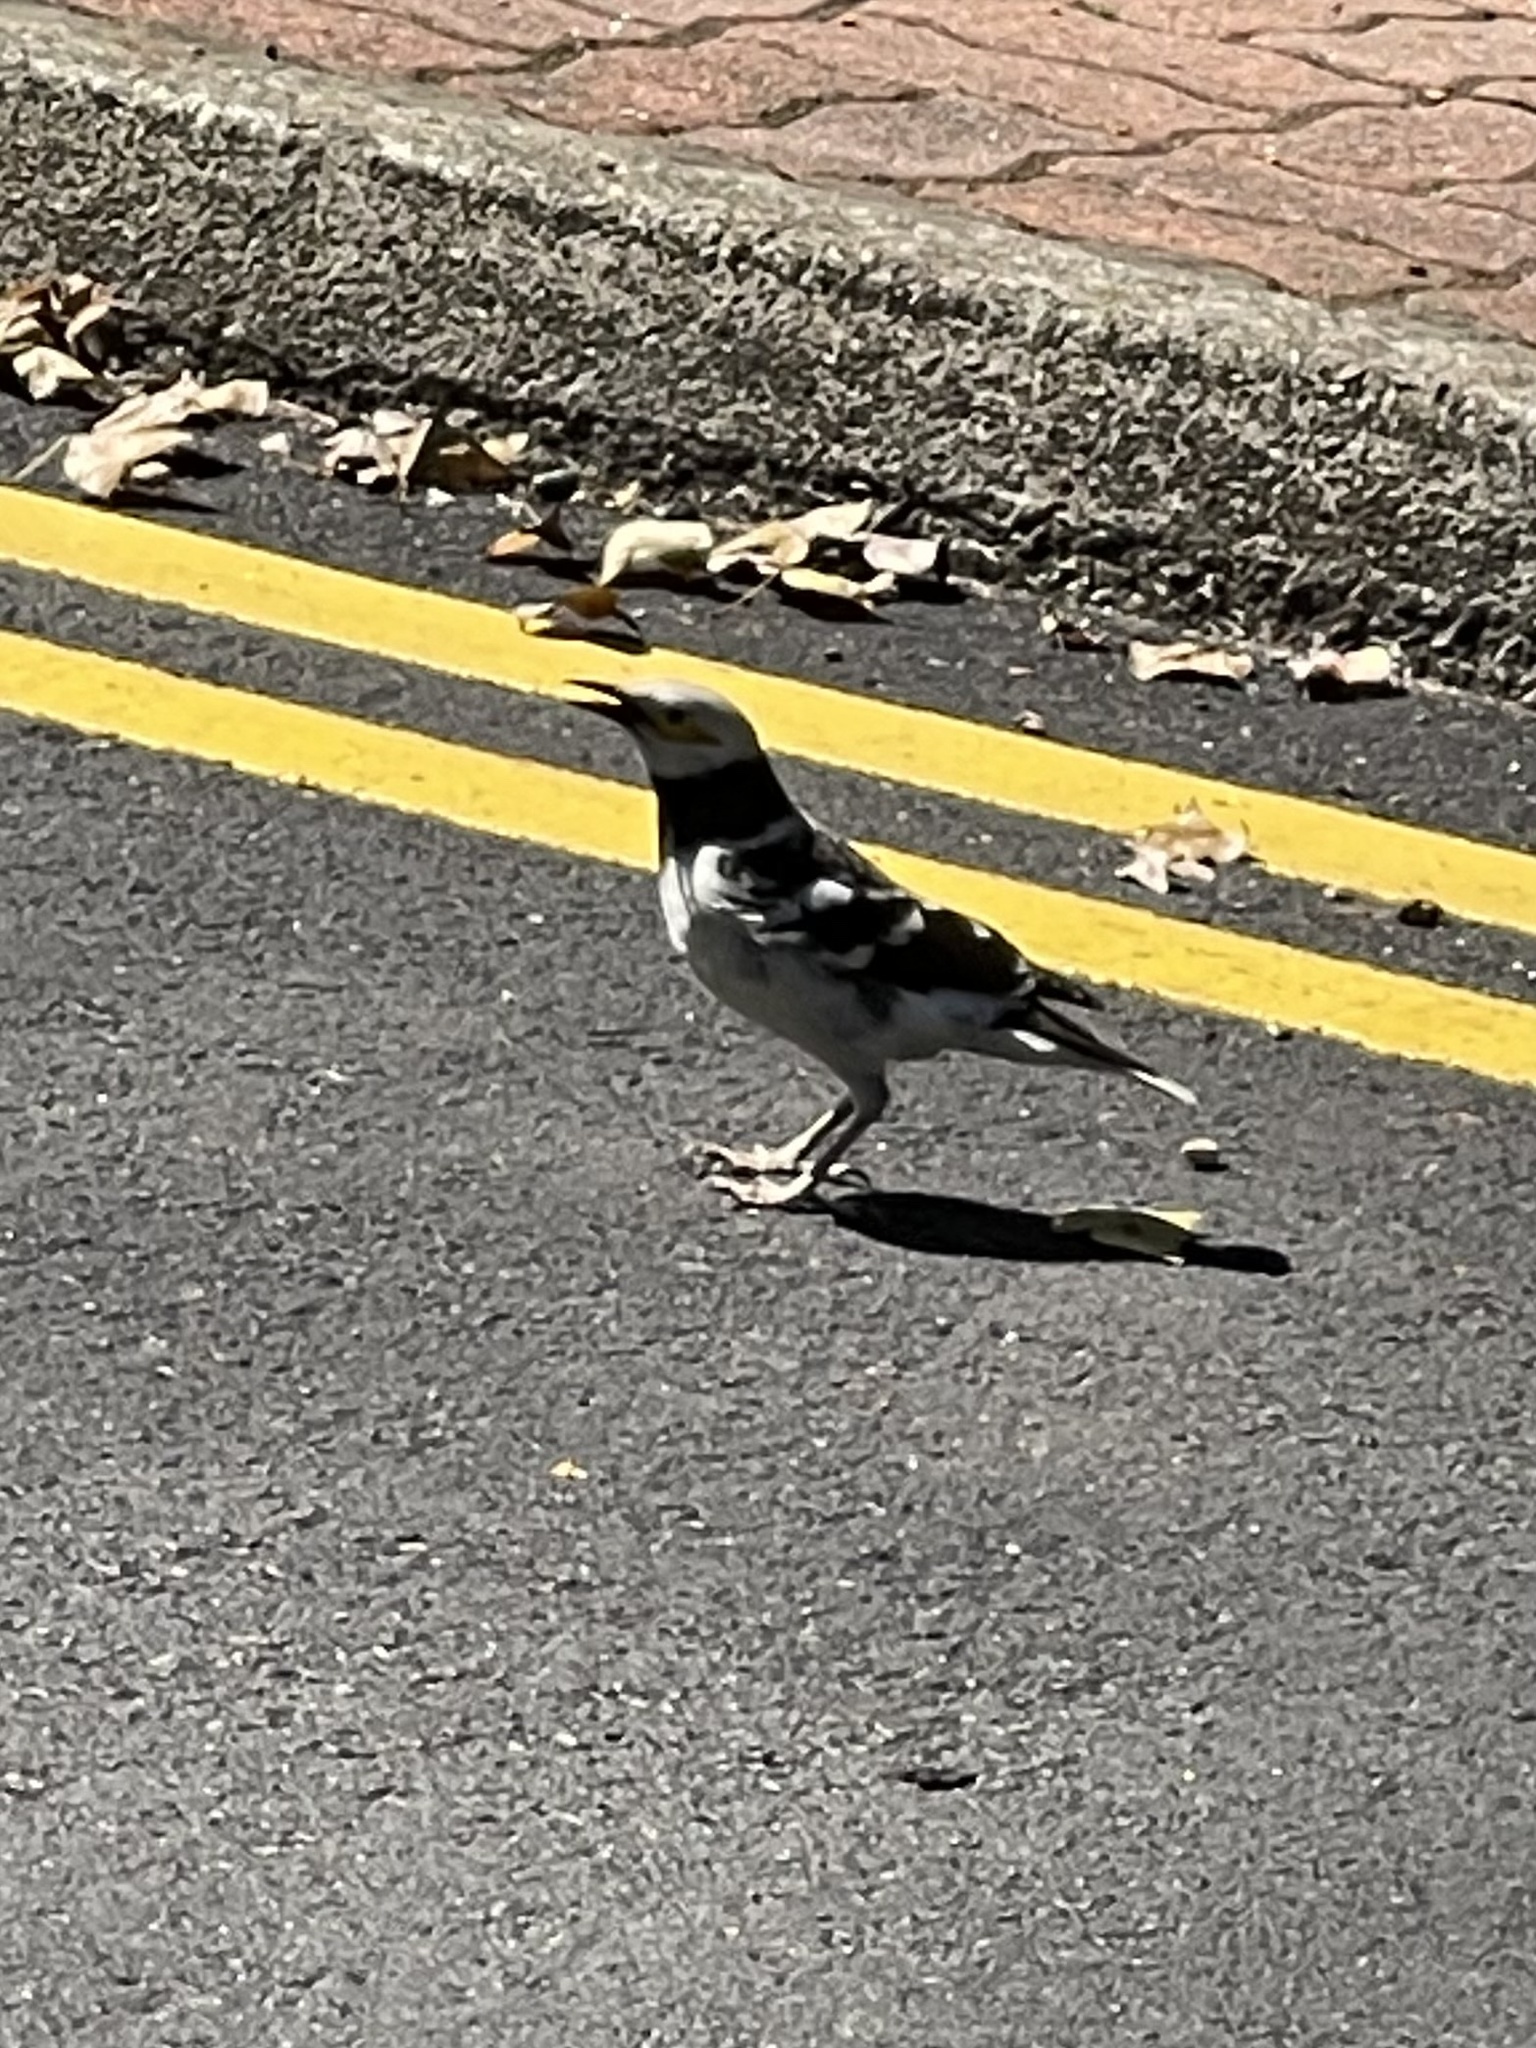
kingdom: Animalia
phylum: Chordata
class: Aves
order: Passeriformes
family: Sturnidae
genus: Gracupica
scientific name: Gracupica nigricollis
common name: Black-collared starling
